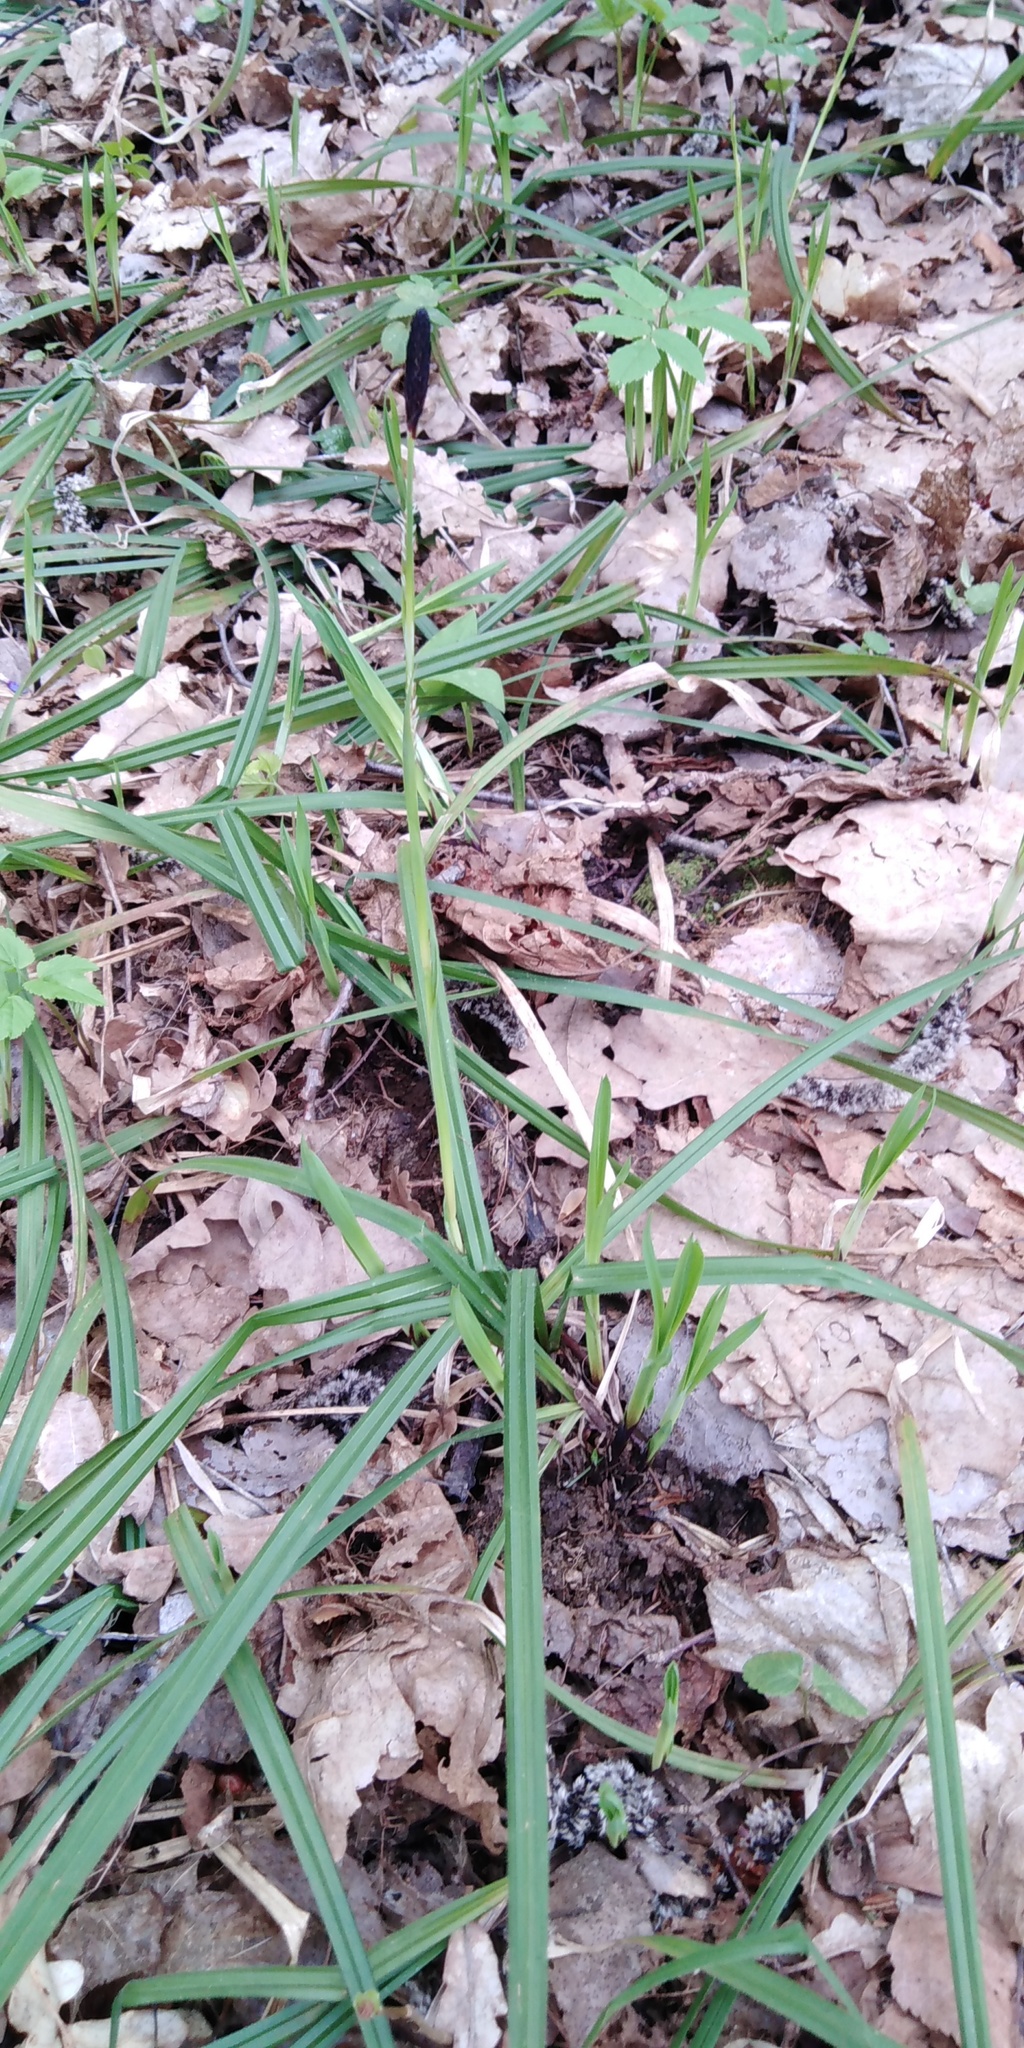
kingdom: Plantae
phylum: Tracheophyta
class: Liliopsida
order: Poales
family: Cyperaceae
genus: Carex
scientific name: Carex pilosa
